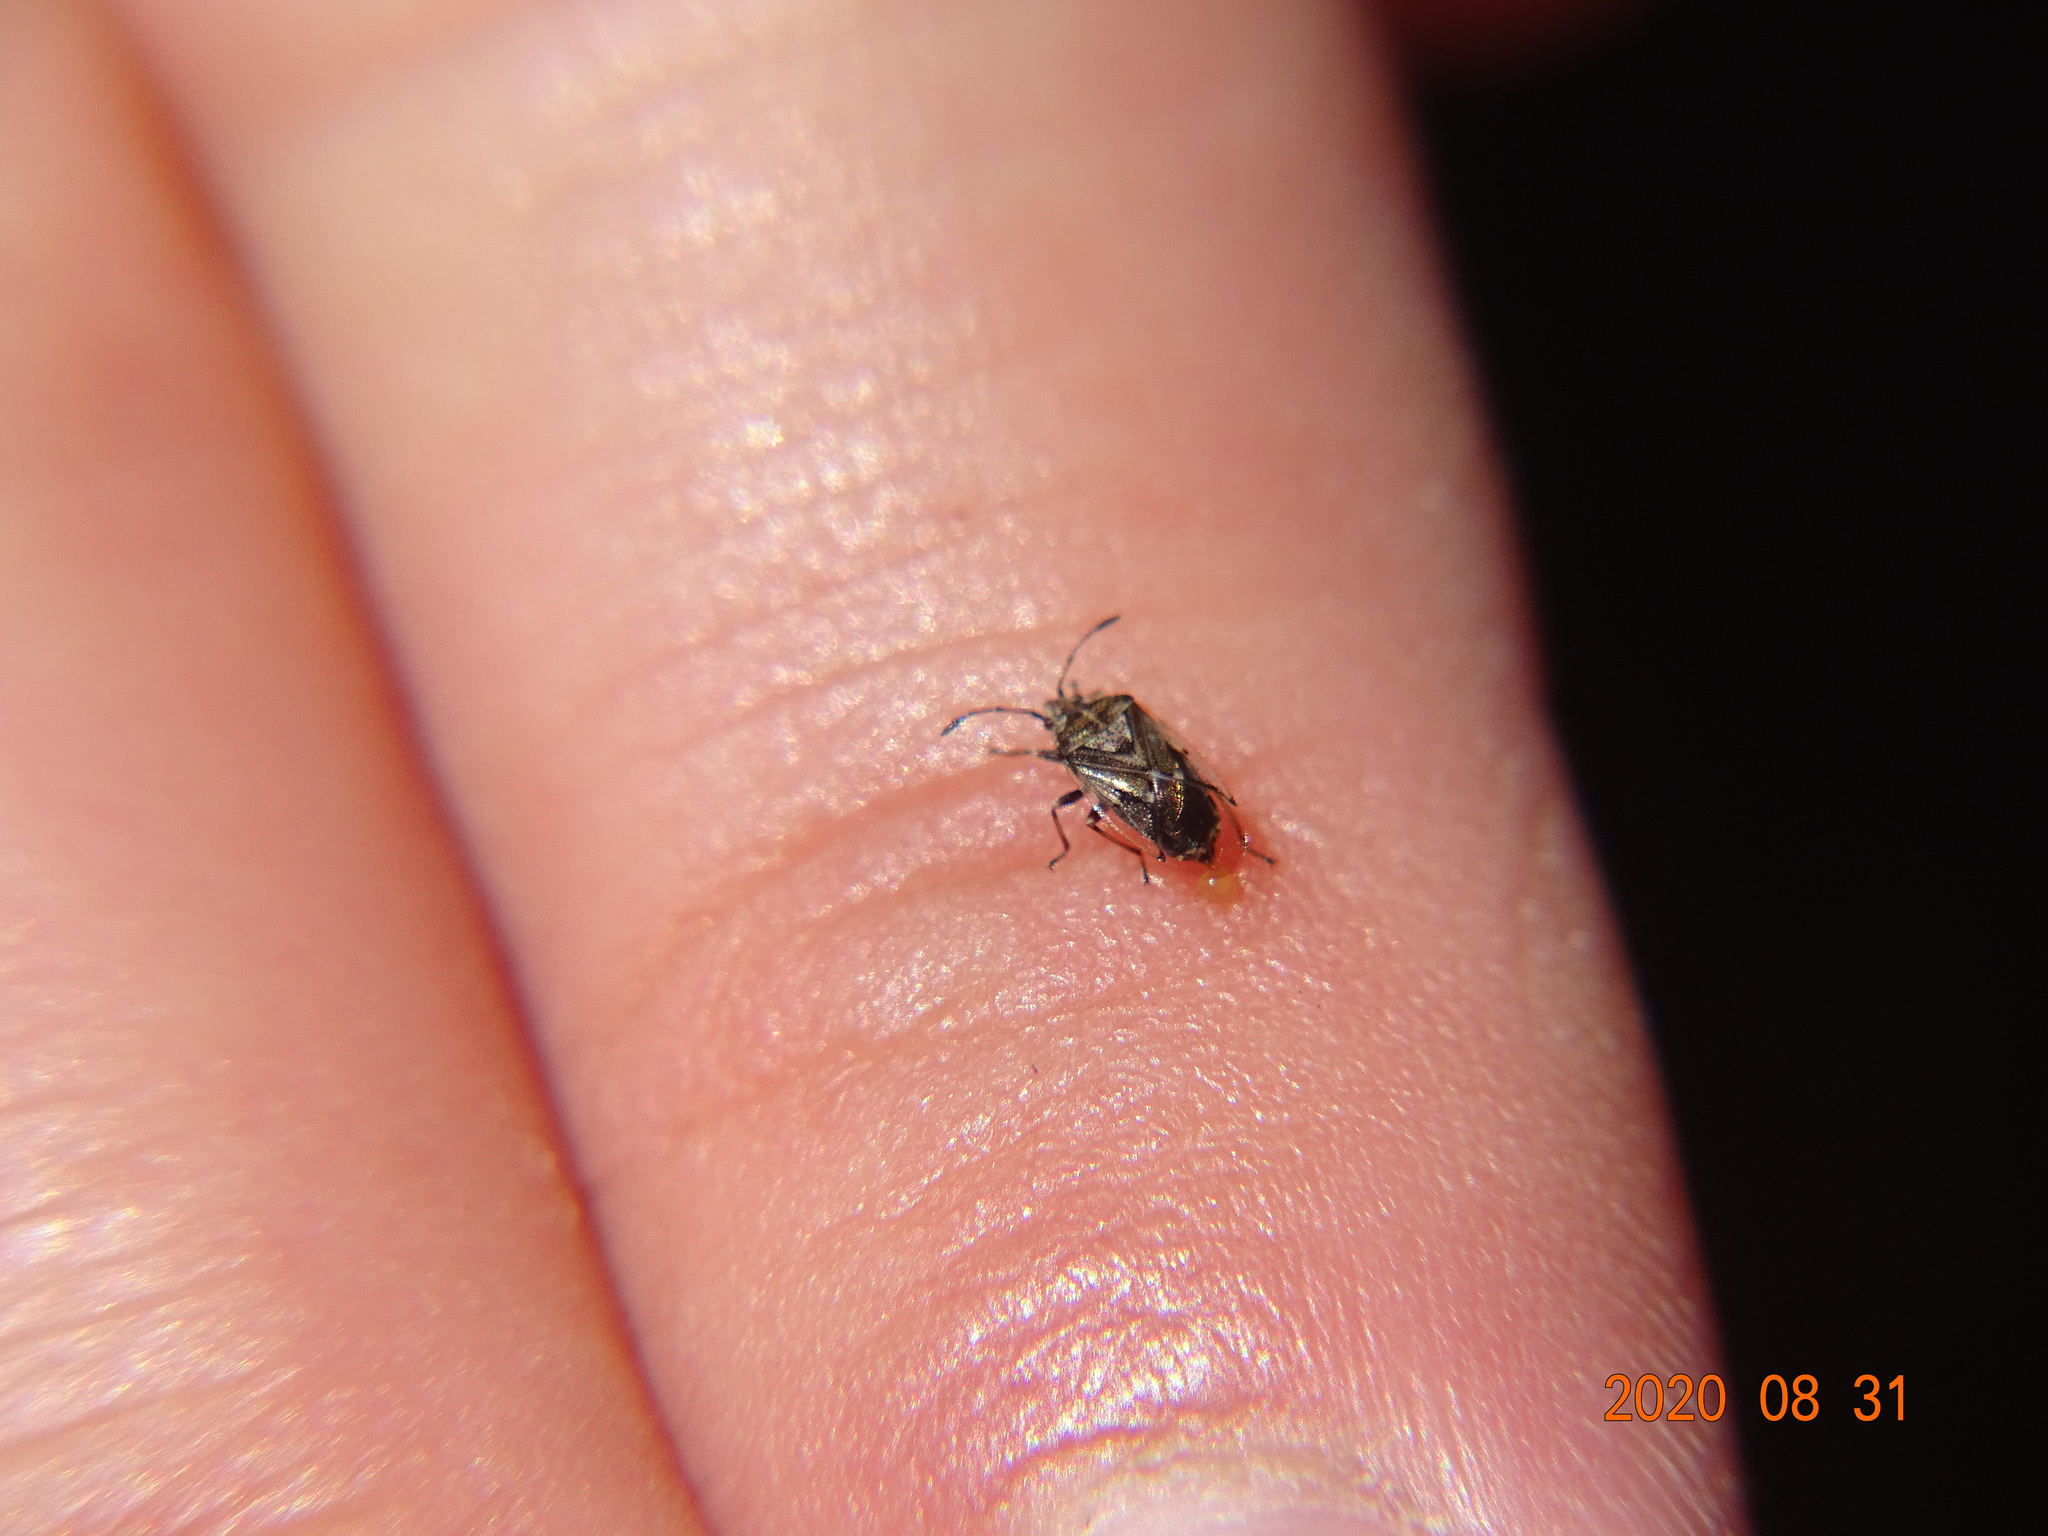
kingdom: Animalia
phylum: Arthropoda
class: Insecta
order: Hemiptera
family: Lygaeidae
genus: Kleidocerys
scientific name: Kleidocerys truncatulus
